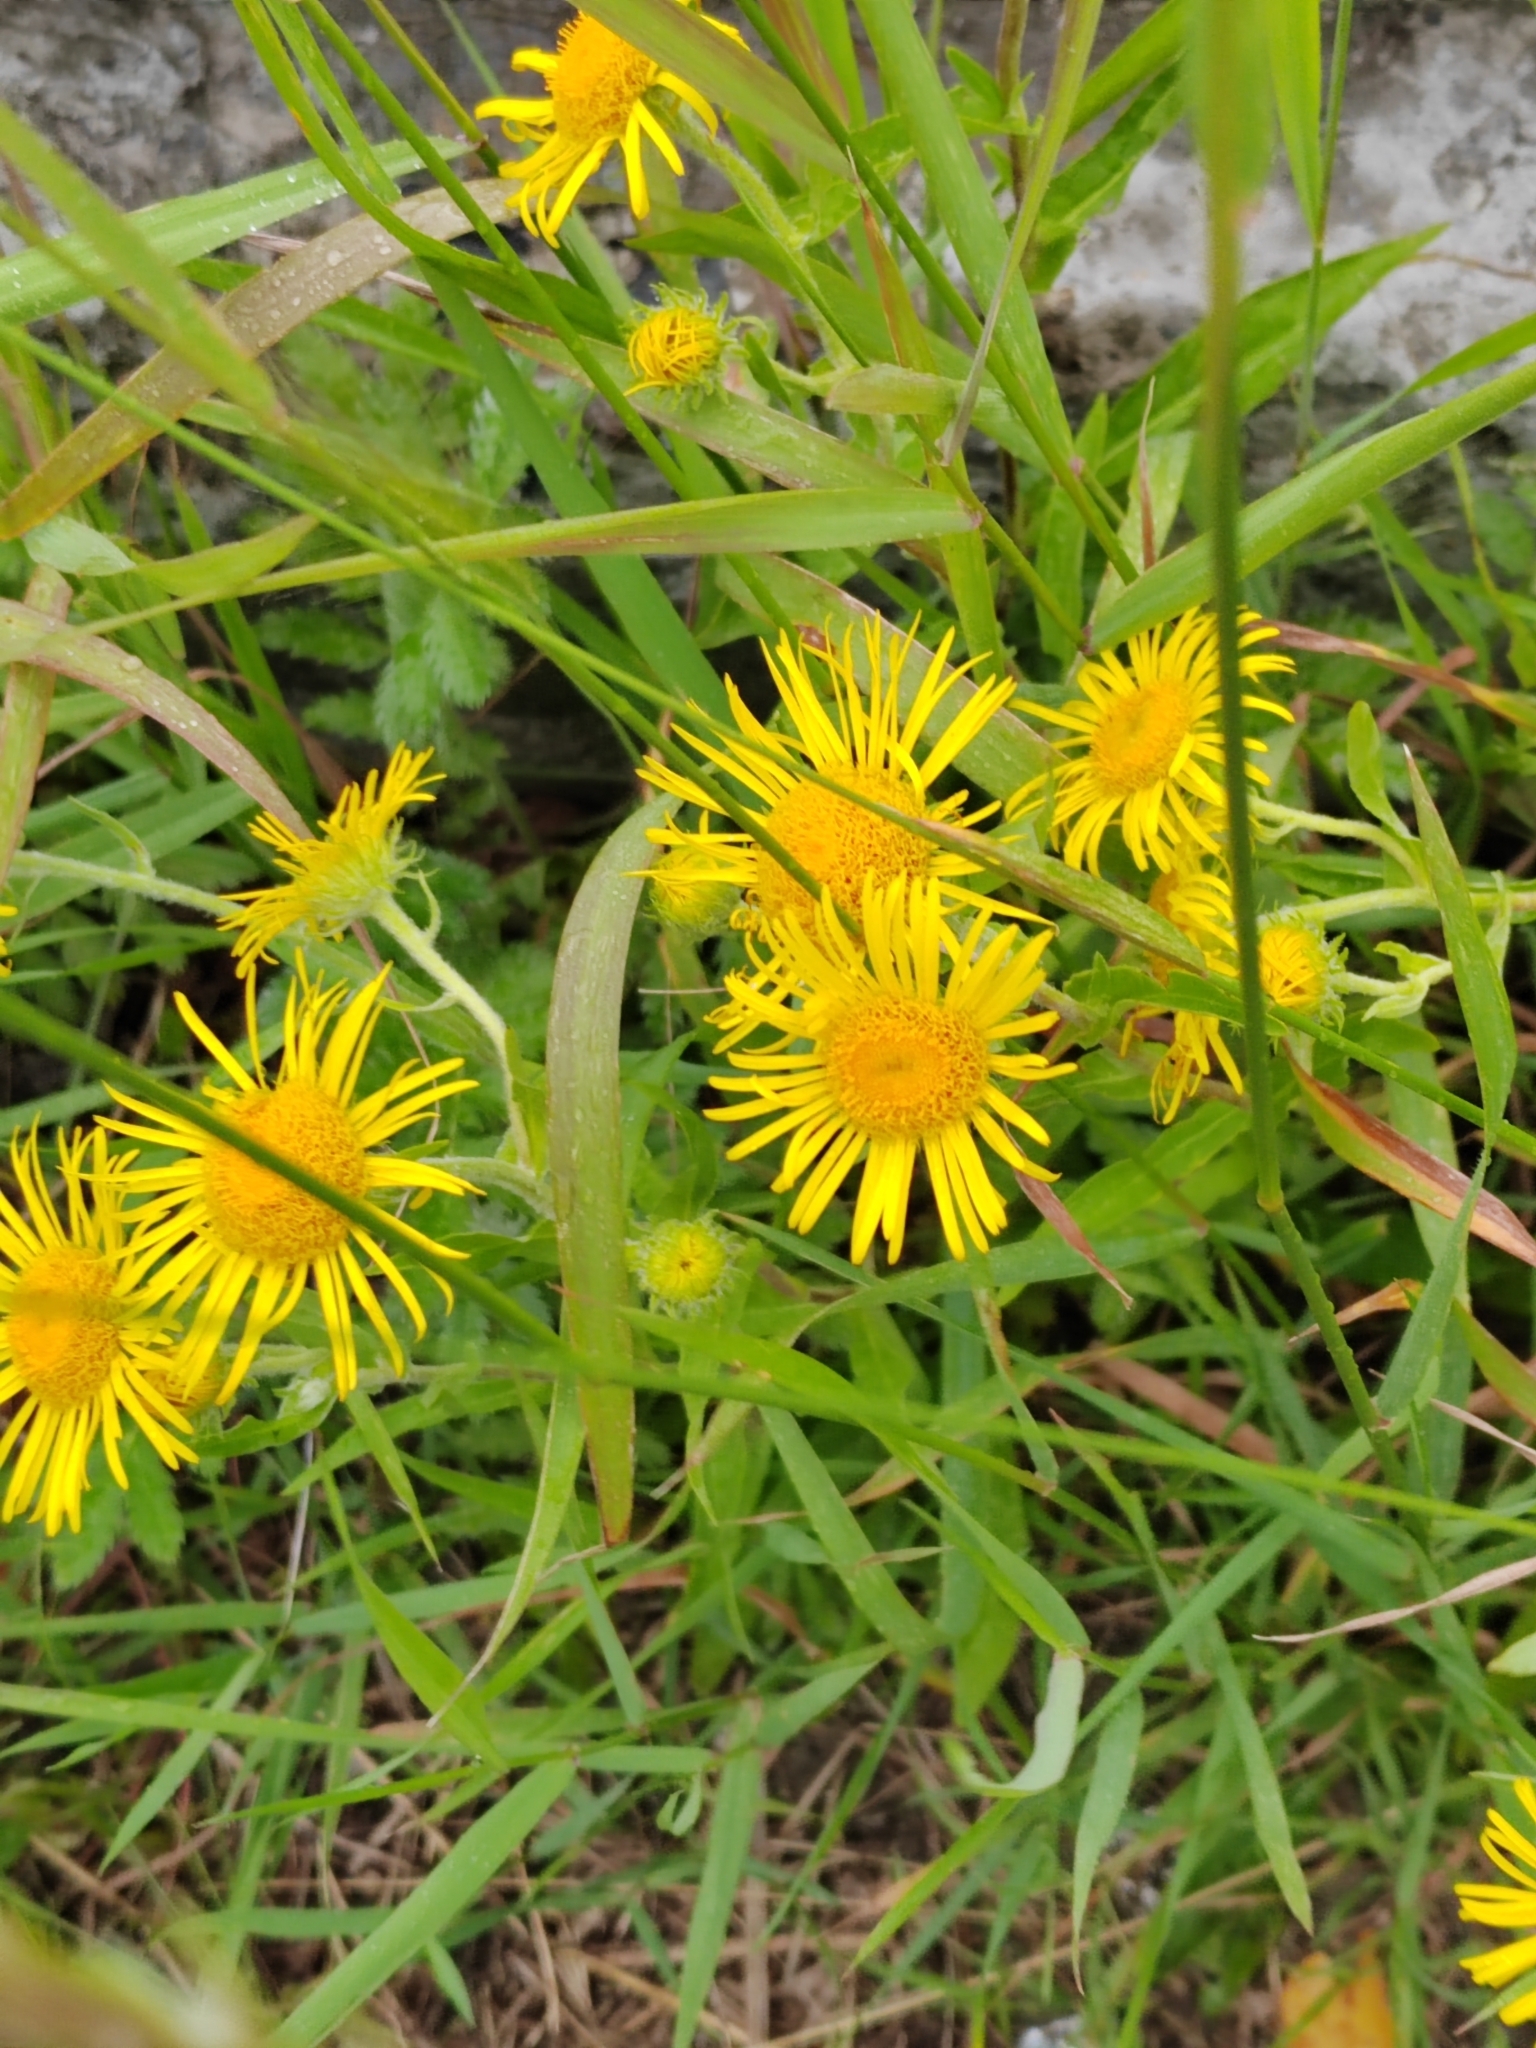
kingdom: Plantae
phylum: Tracheophyta
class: Magnoliopsida
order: Asterales
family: Asteraceae
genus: Pentanema
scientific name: Pentanema britannicum
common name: British elecampane
